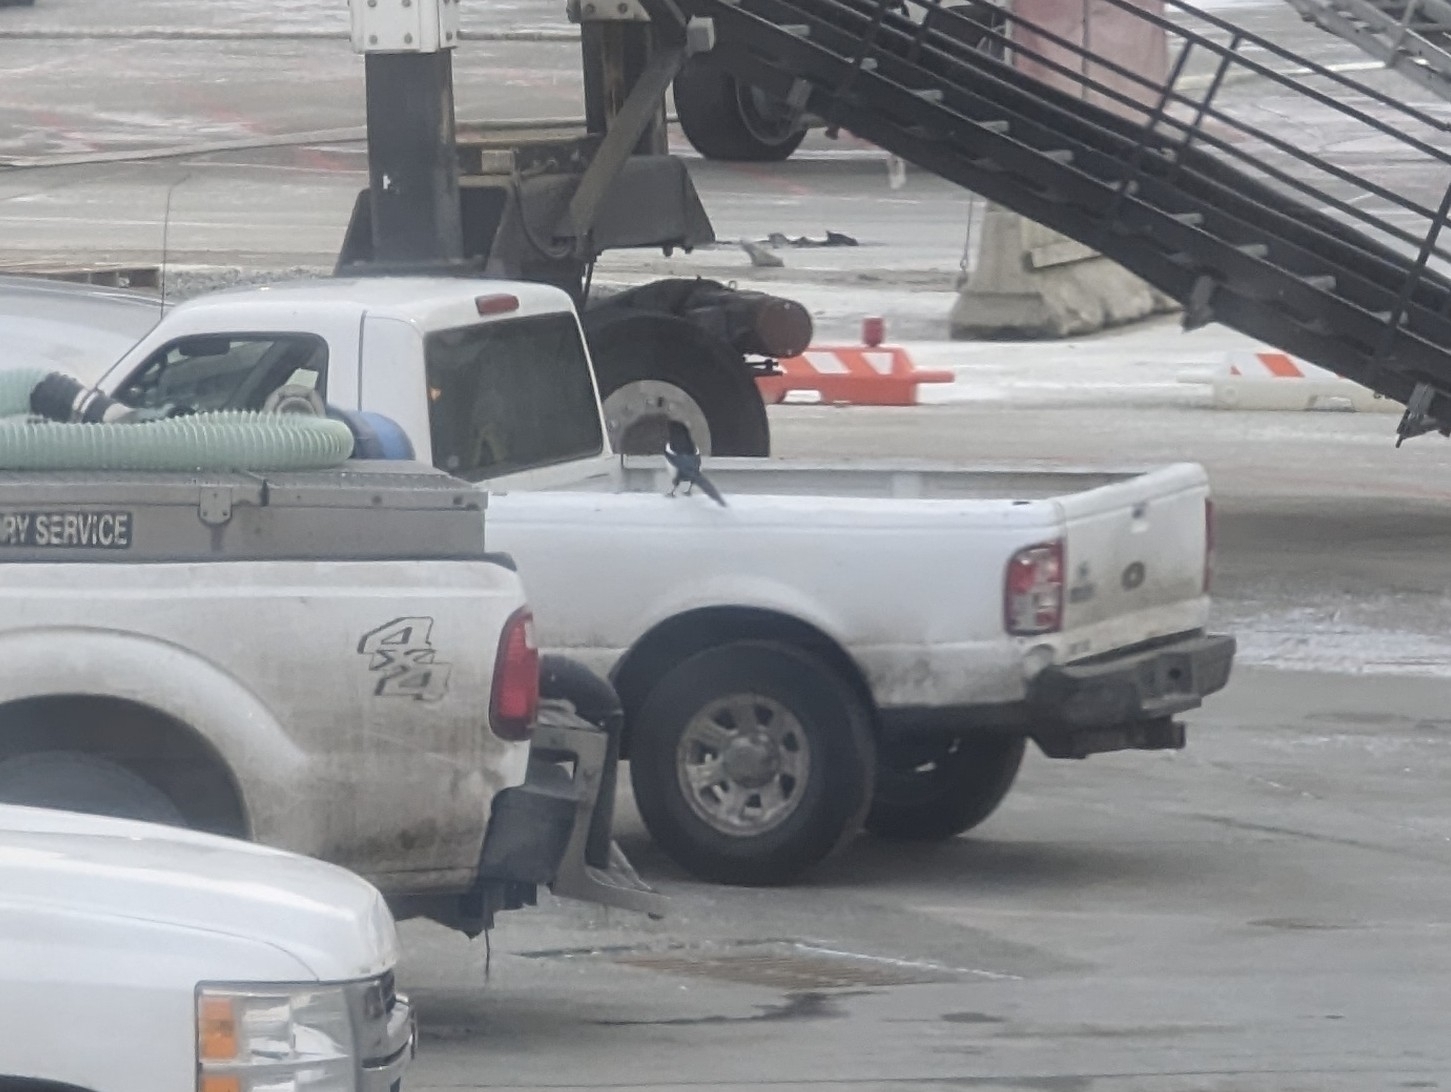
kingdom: Animalia
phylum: Chordata
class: Aves
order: Passeriformes
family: Corvidae
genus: Pica
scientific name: Pica hudsonia
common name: Black-billed magpie
